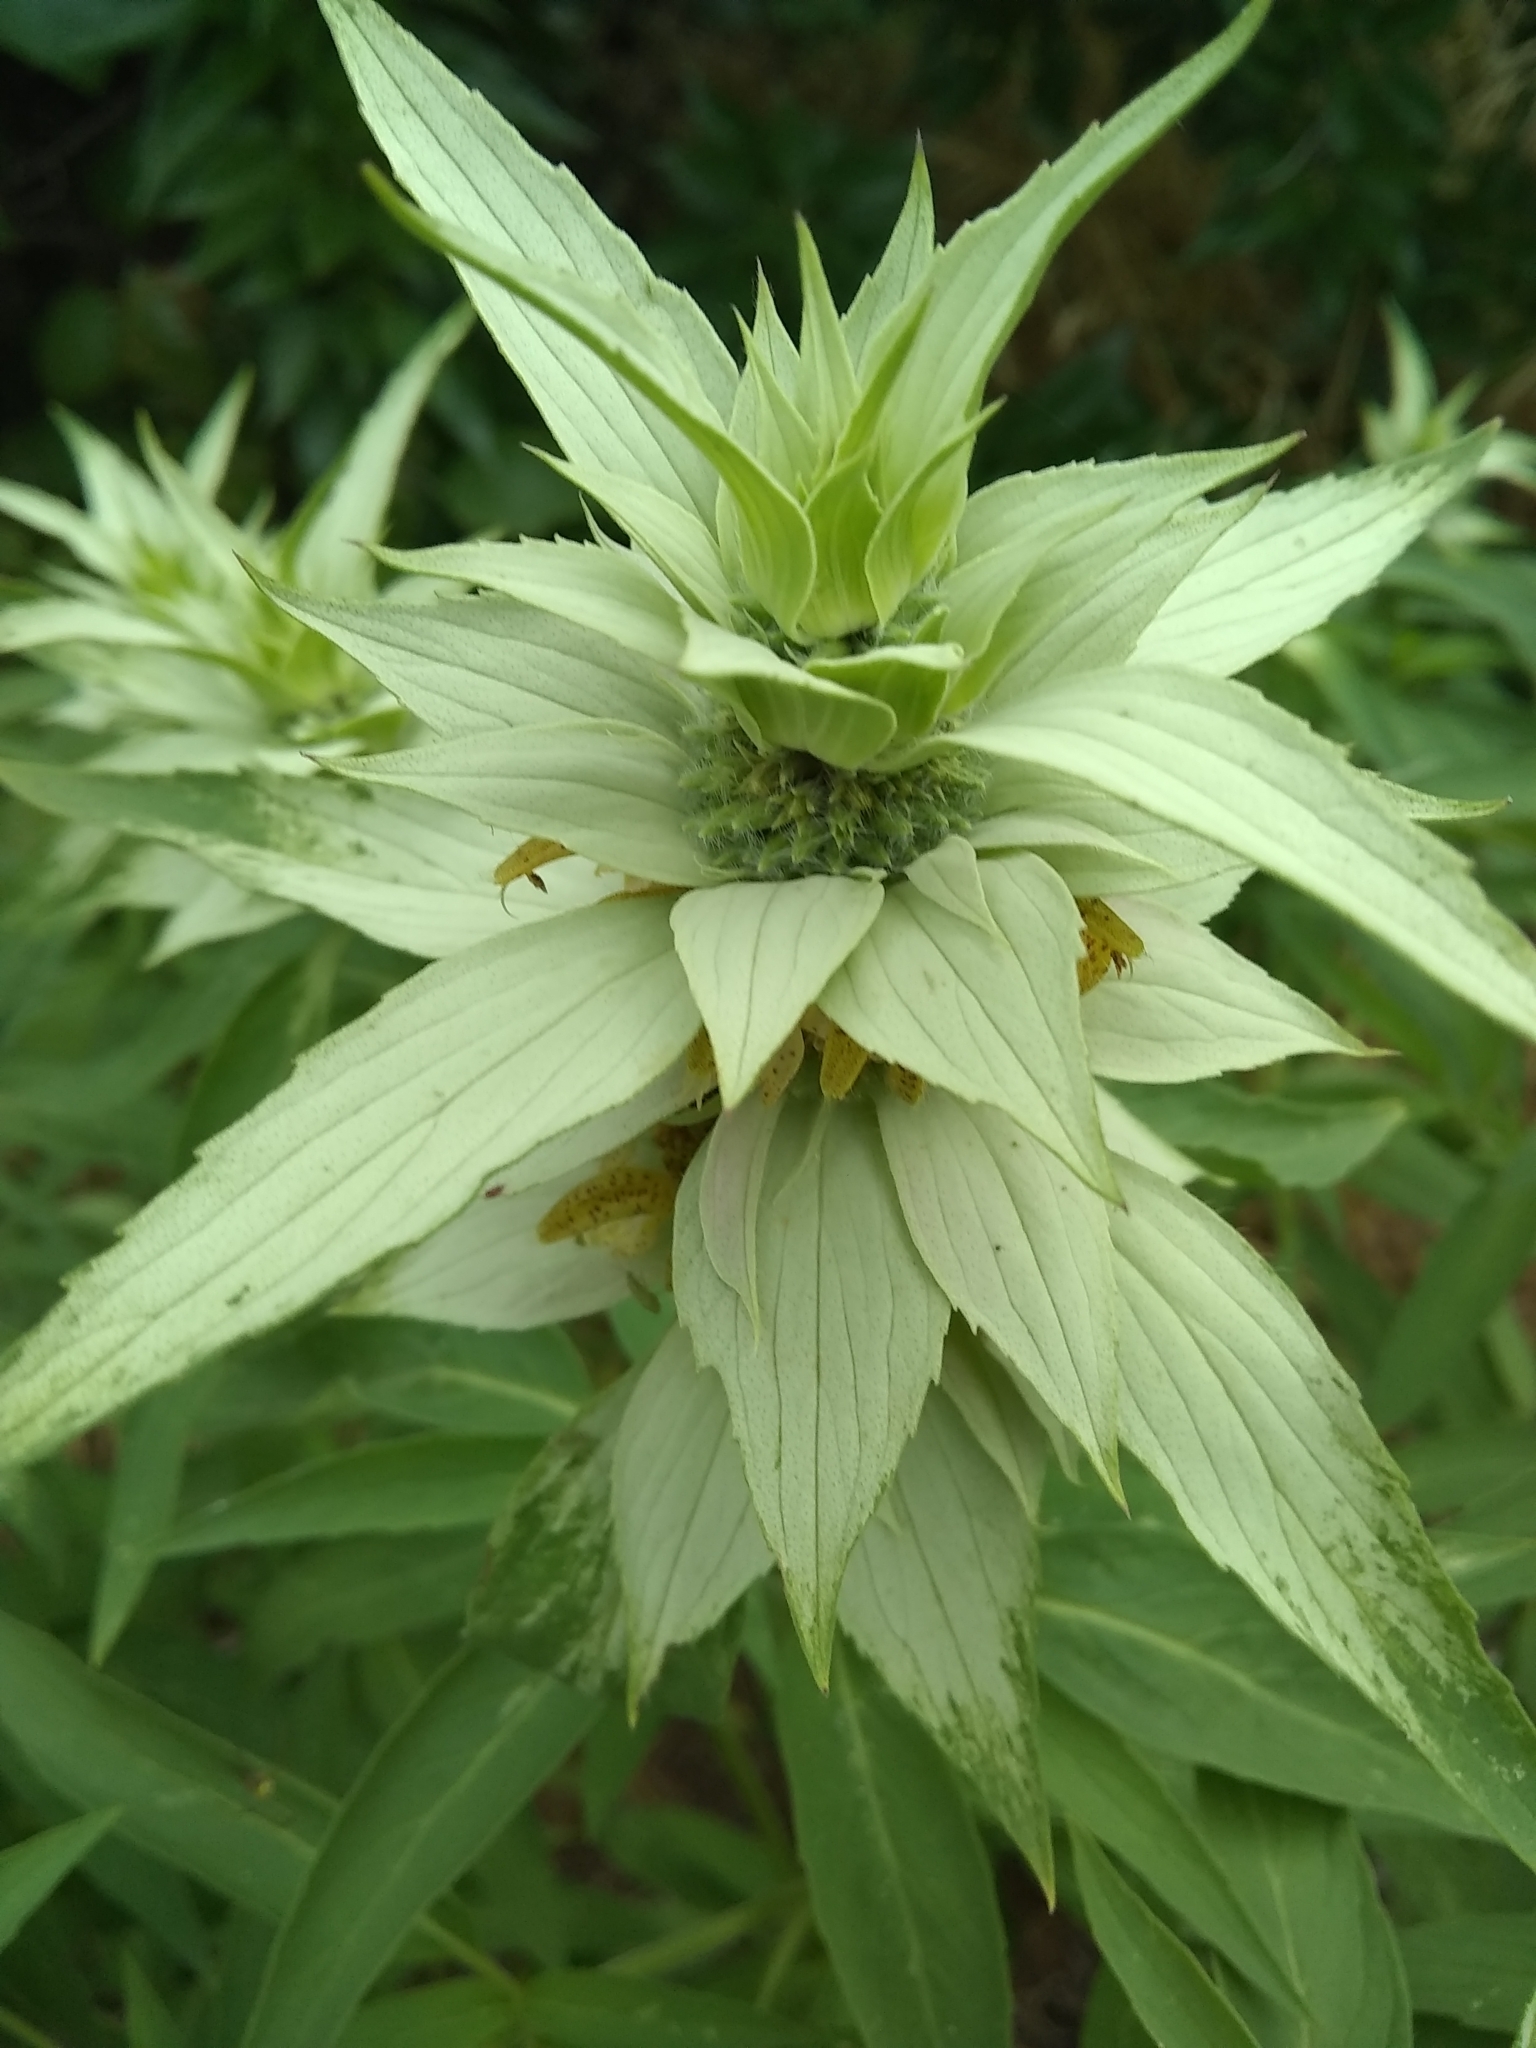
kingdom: Plantae
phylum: Tracheophyta
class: Magnoliopsida
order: Lamiales
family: Lamiaceae
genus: Monarda
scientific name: Monarda punctata
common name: Dotted monarda
